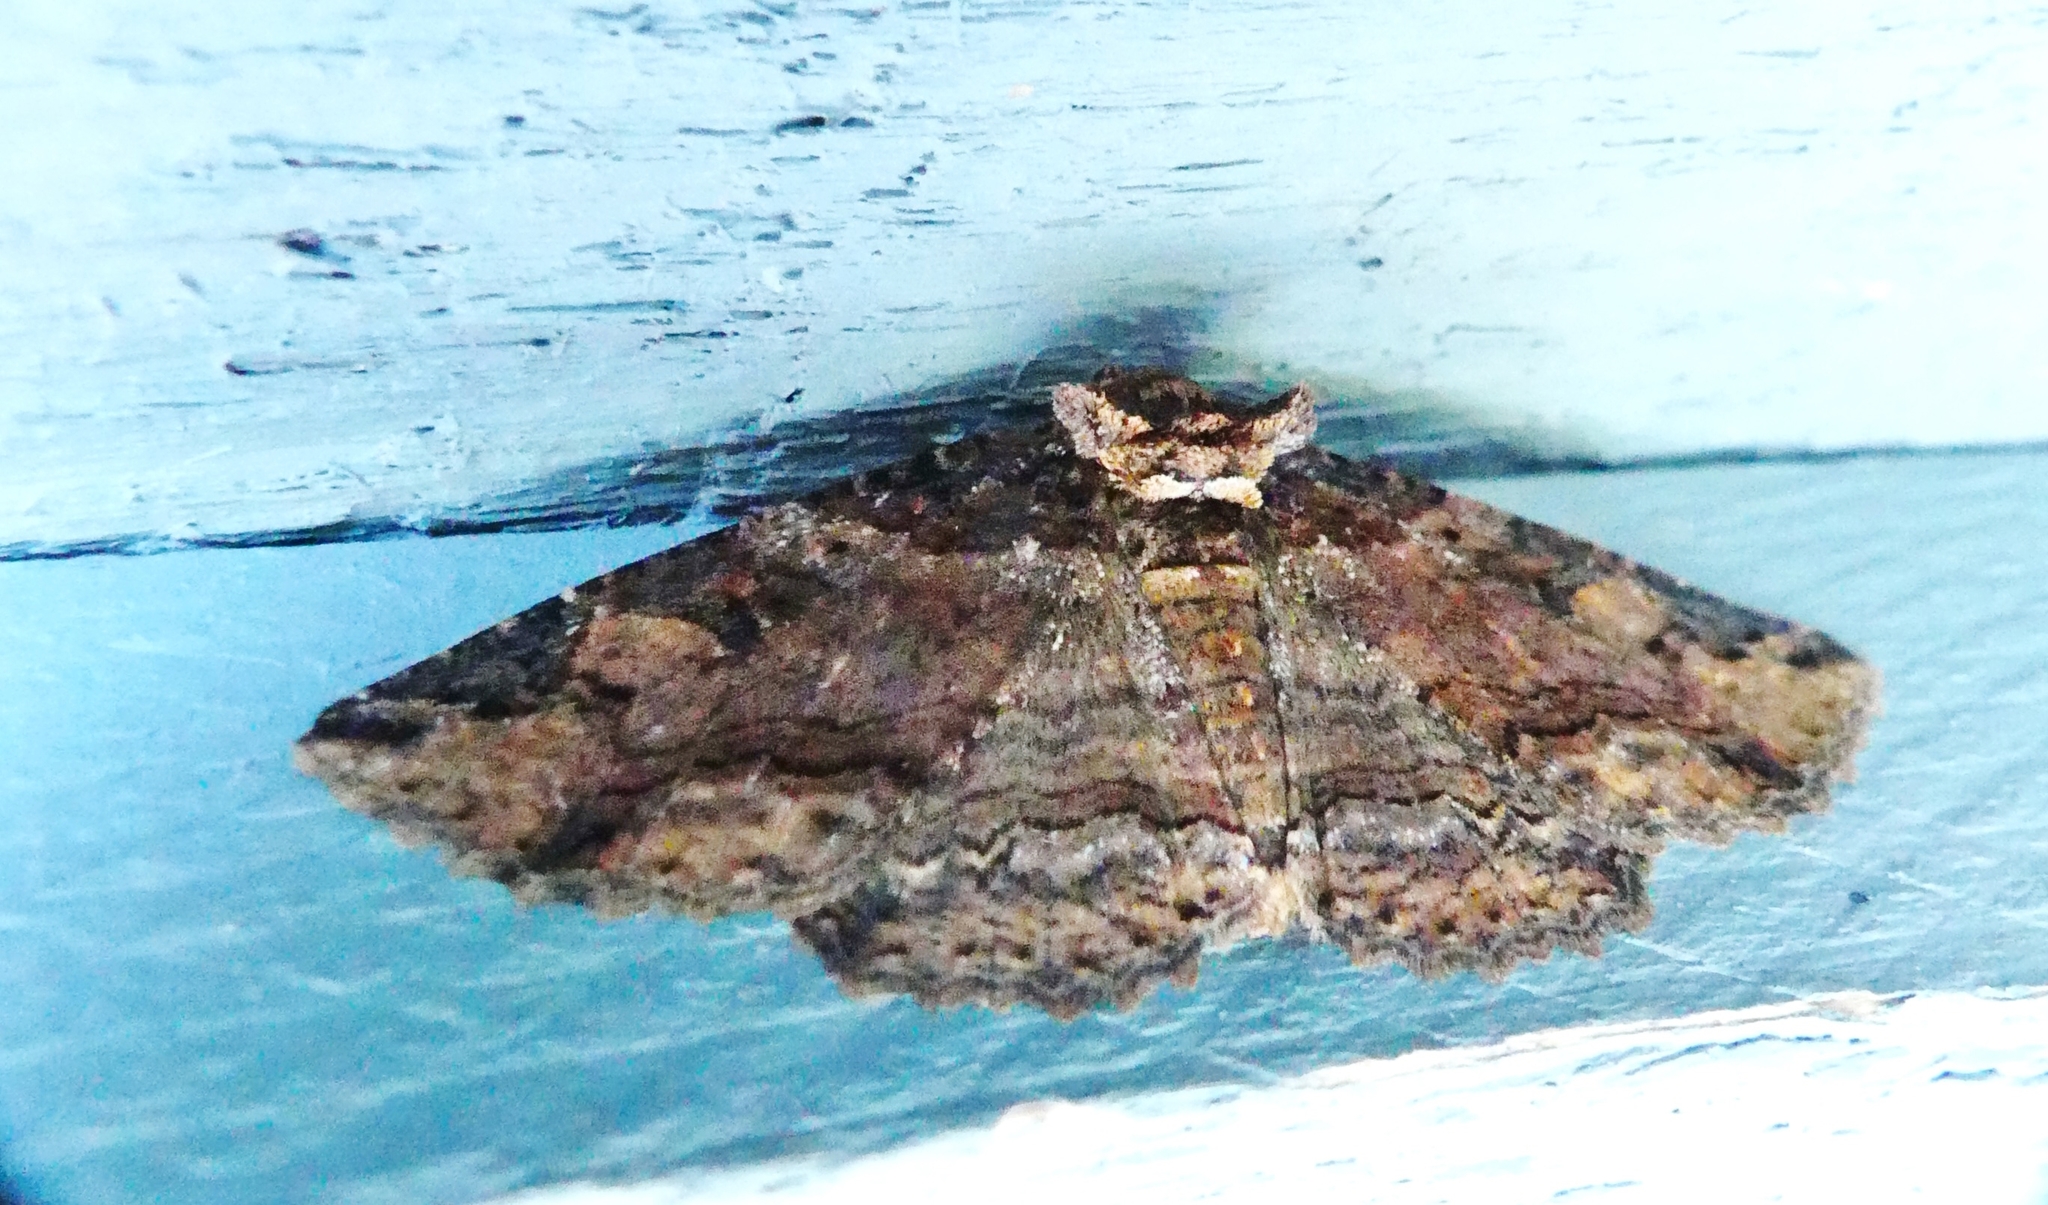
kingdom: Animalia
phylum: Arthropoda
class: Insecta
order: Lepidoptera
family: Erebidae
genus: Zale
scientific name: Zale minerea
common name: Colorful zale moth
